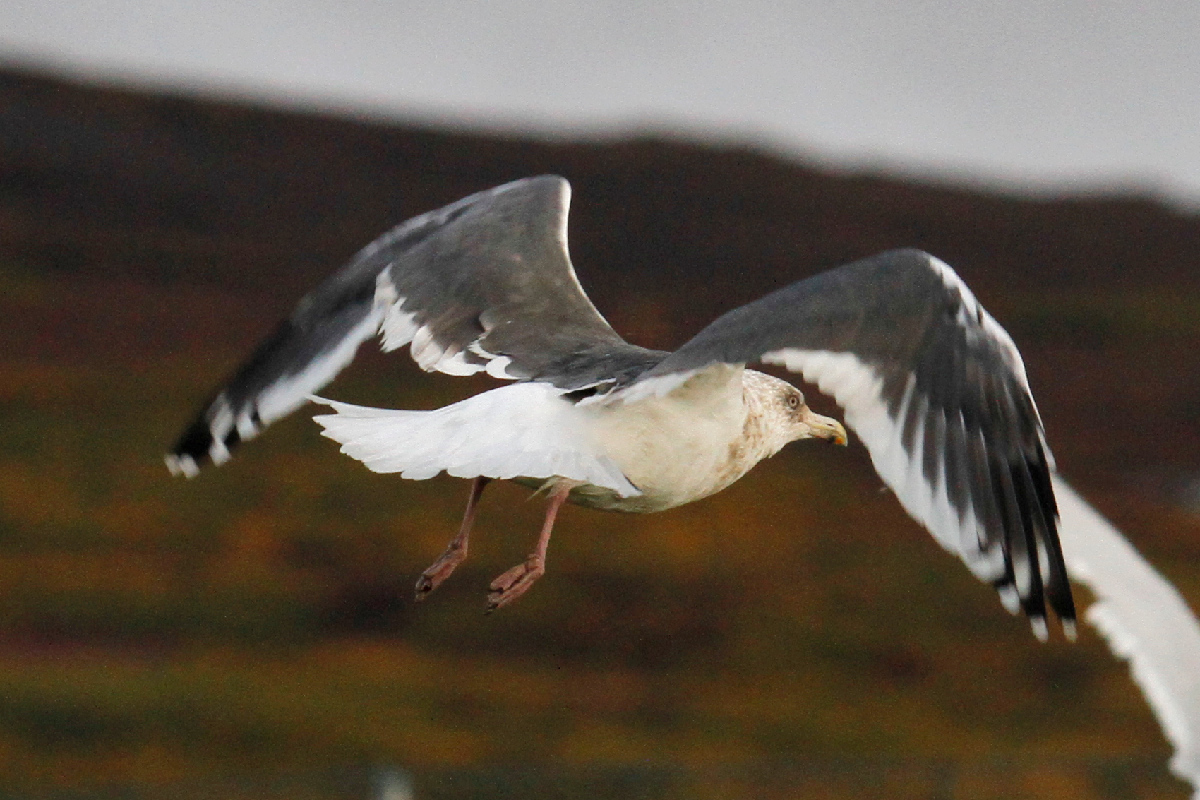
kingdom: Animalia
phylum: Chordata
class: Aves
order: Charadriiformes
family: Laridae
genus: Larus
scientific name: Larus schistisagus
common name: Slaty-backed gull
